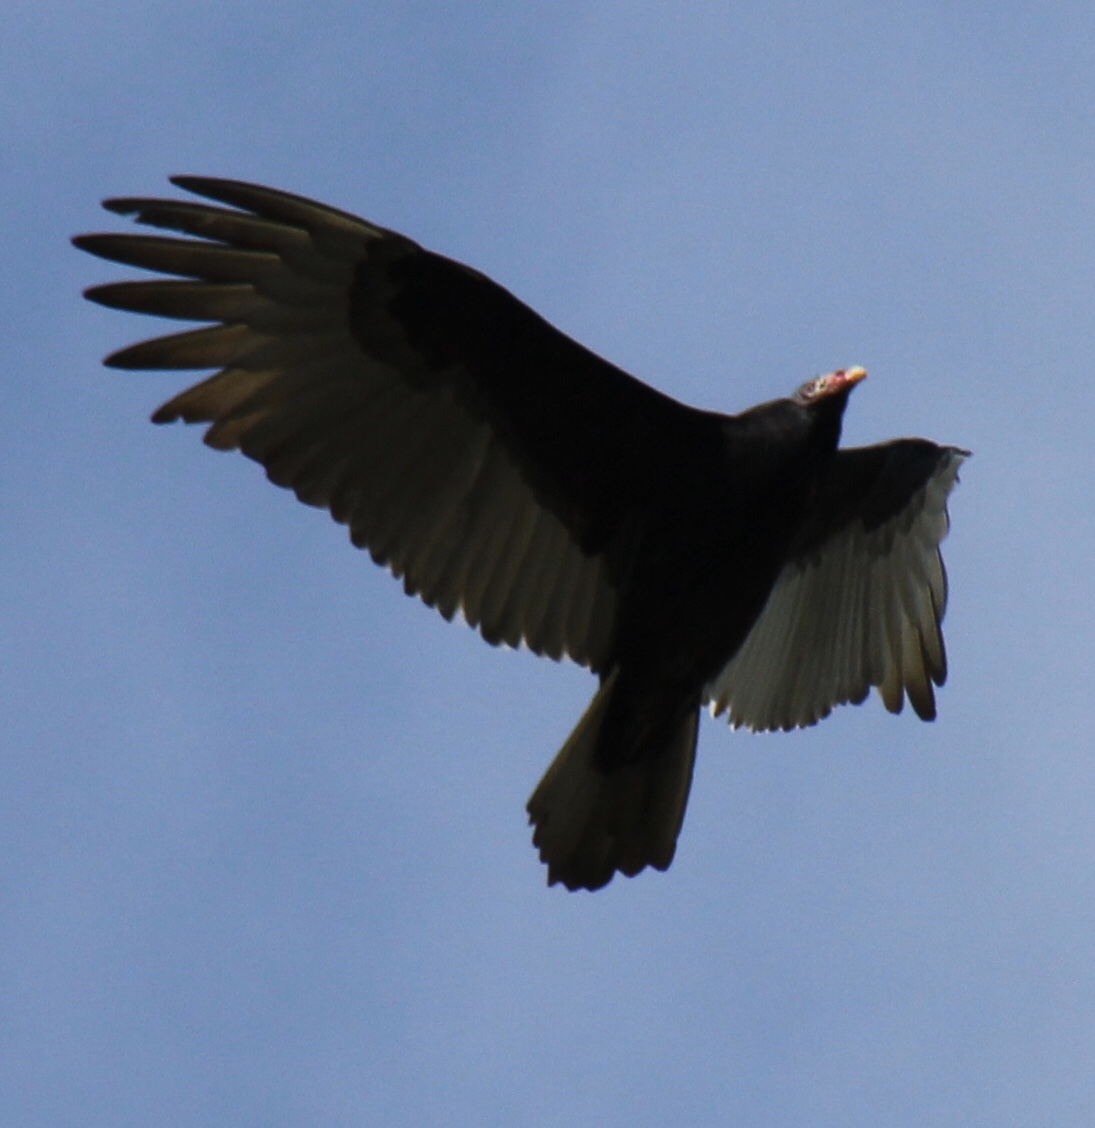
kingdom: Animalia
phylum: Chordata
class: Aves
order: Accipitriformes
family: Cathartidae
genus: Cathartes
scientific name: Cathartes aura
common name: Turkey vulture
